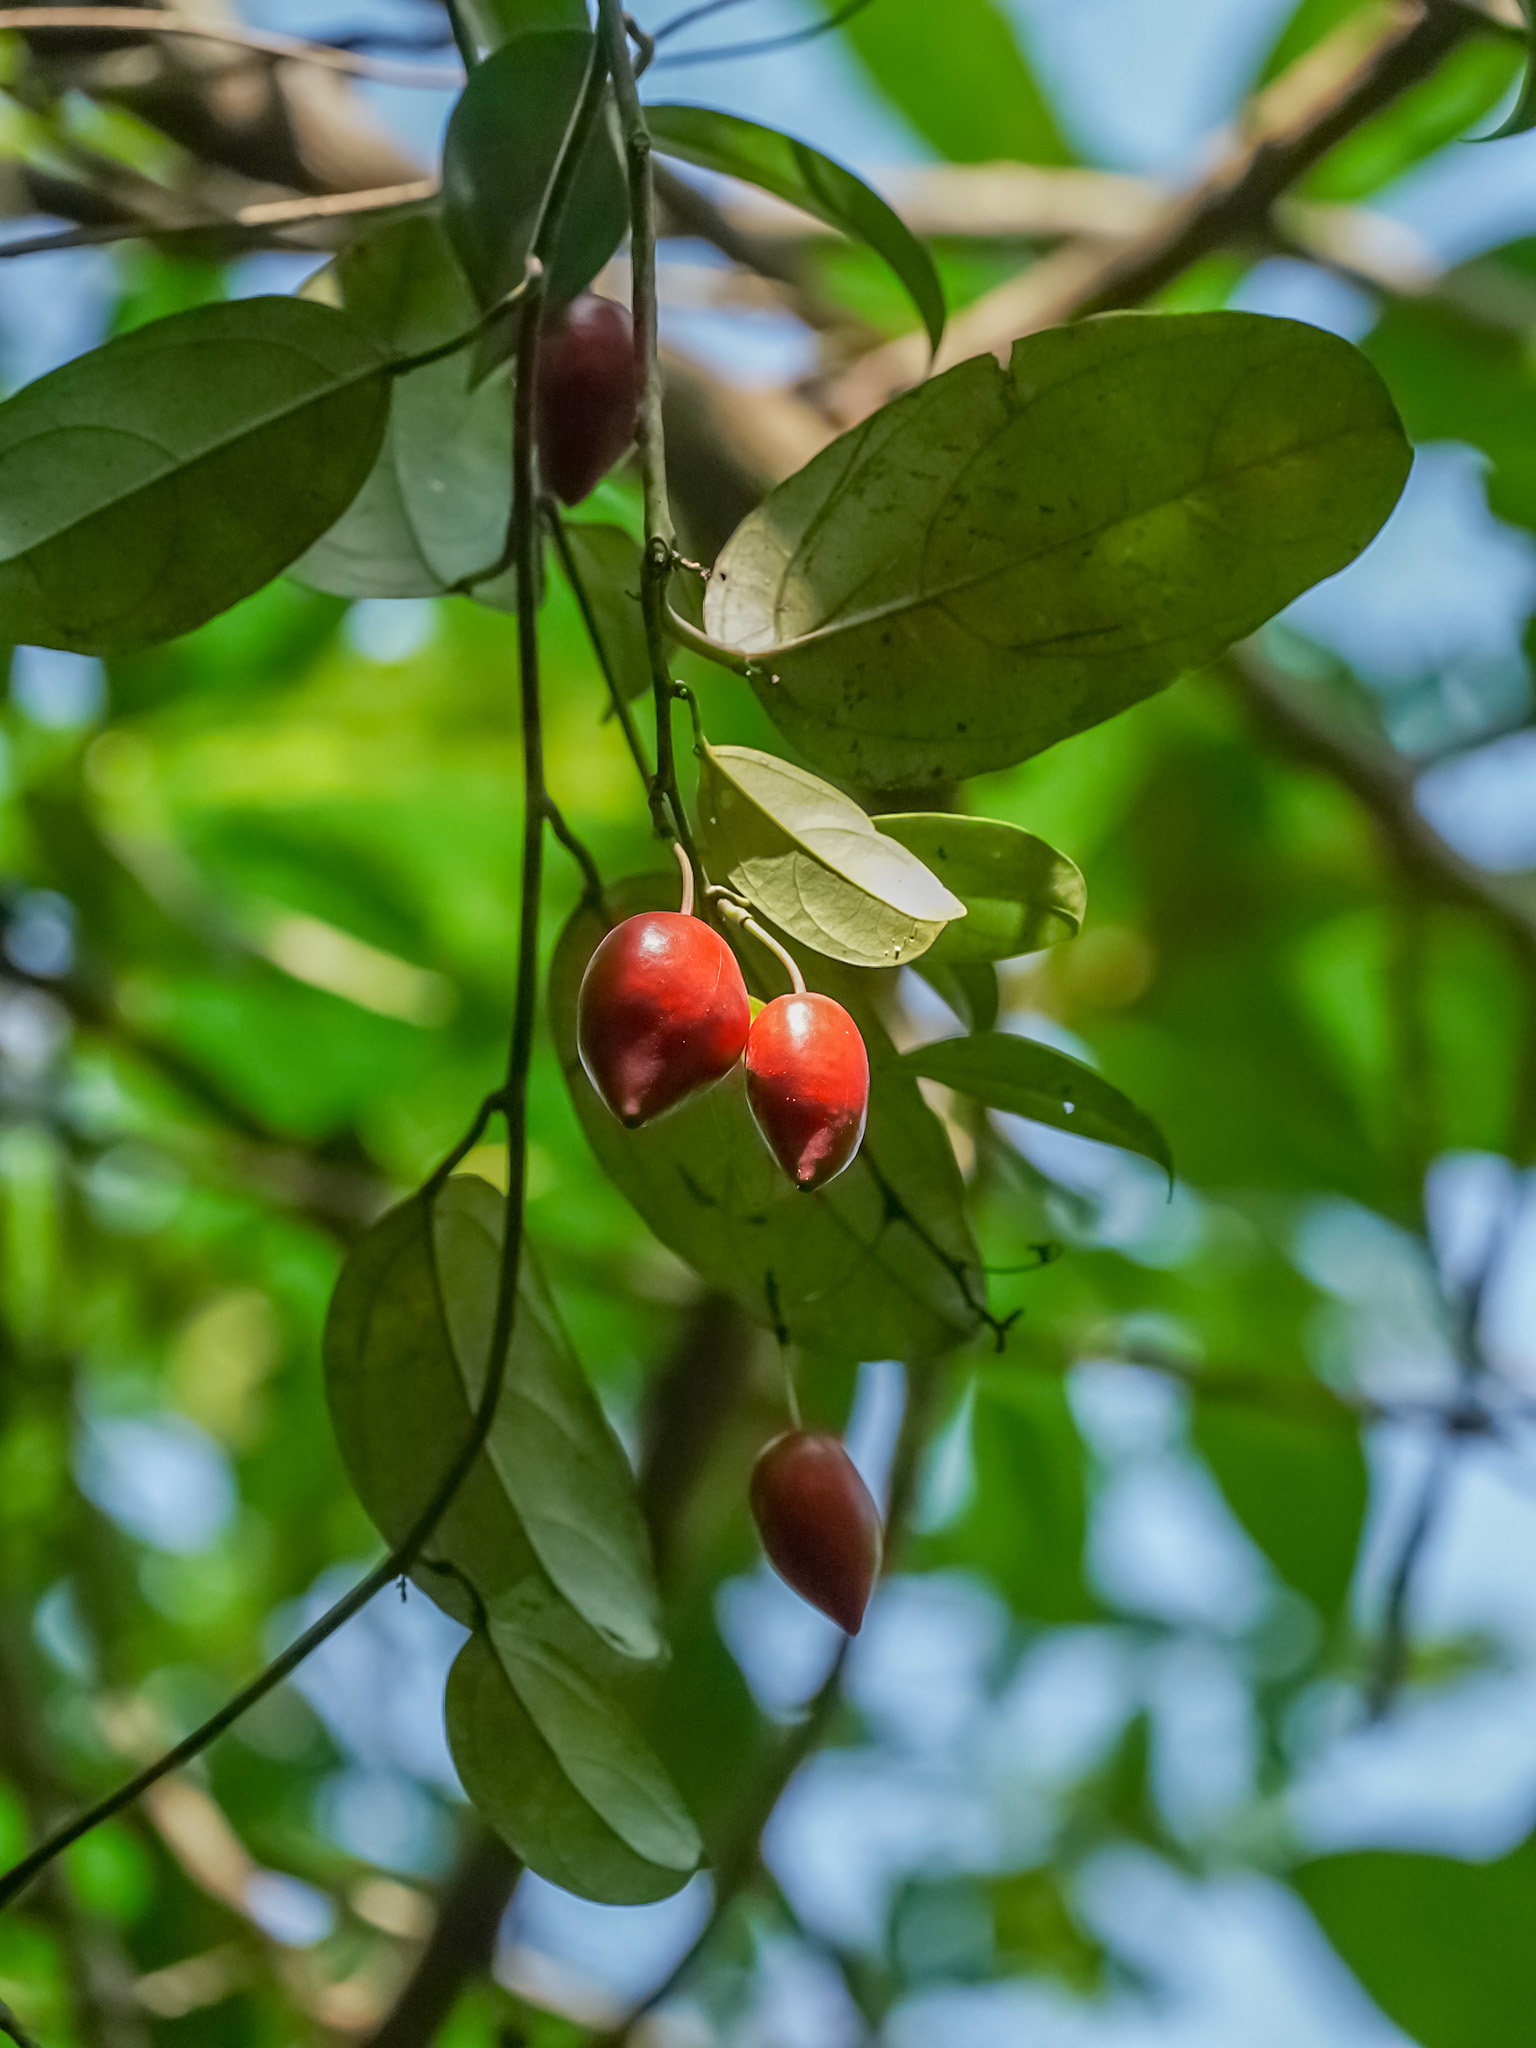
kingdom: Plantae
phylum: Tracheophyta
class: Magnoliopsida
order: Malpighiales
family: Passifloraceae
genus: Adenia
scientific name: Adenia macrophylla
